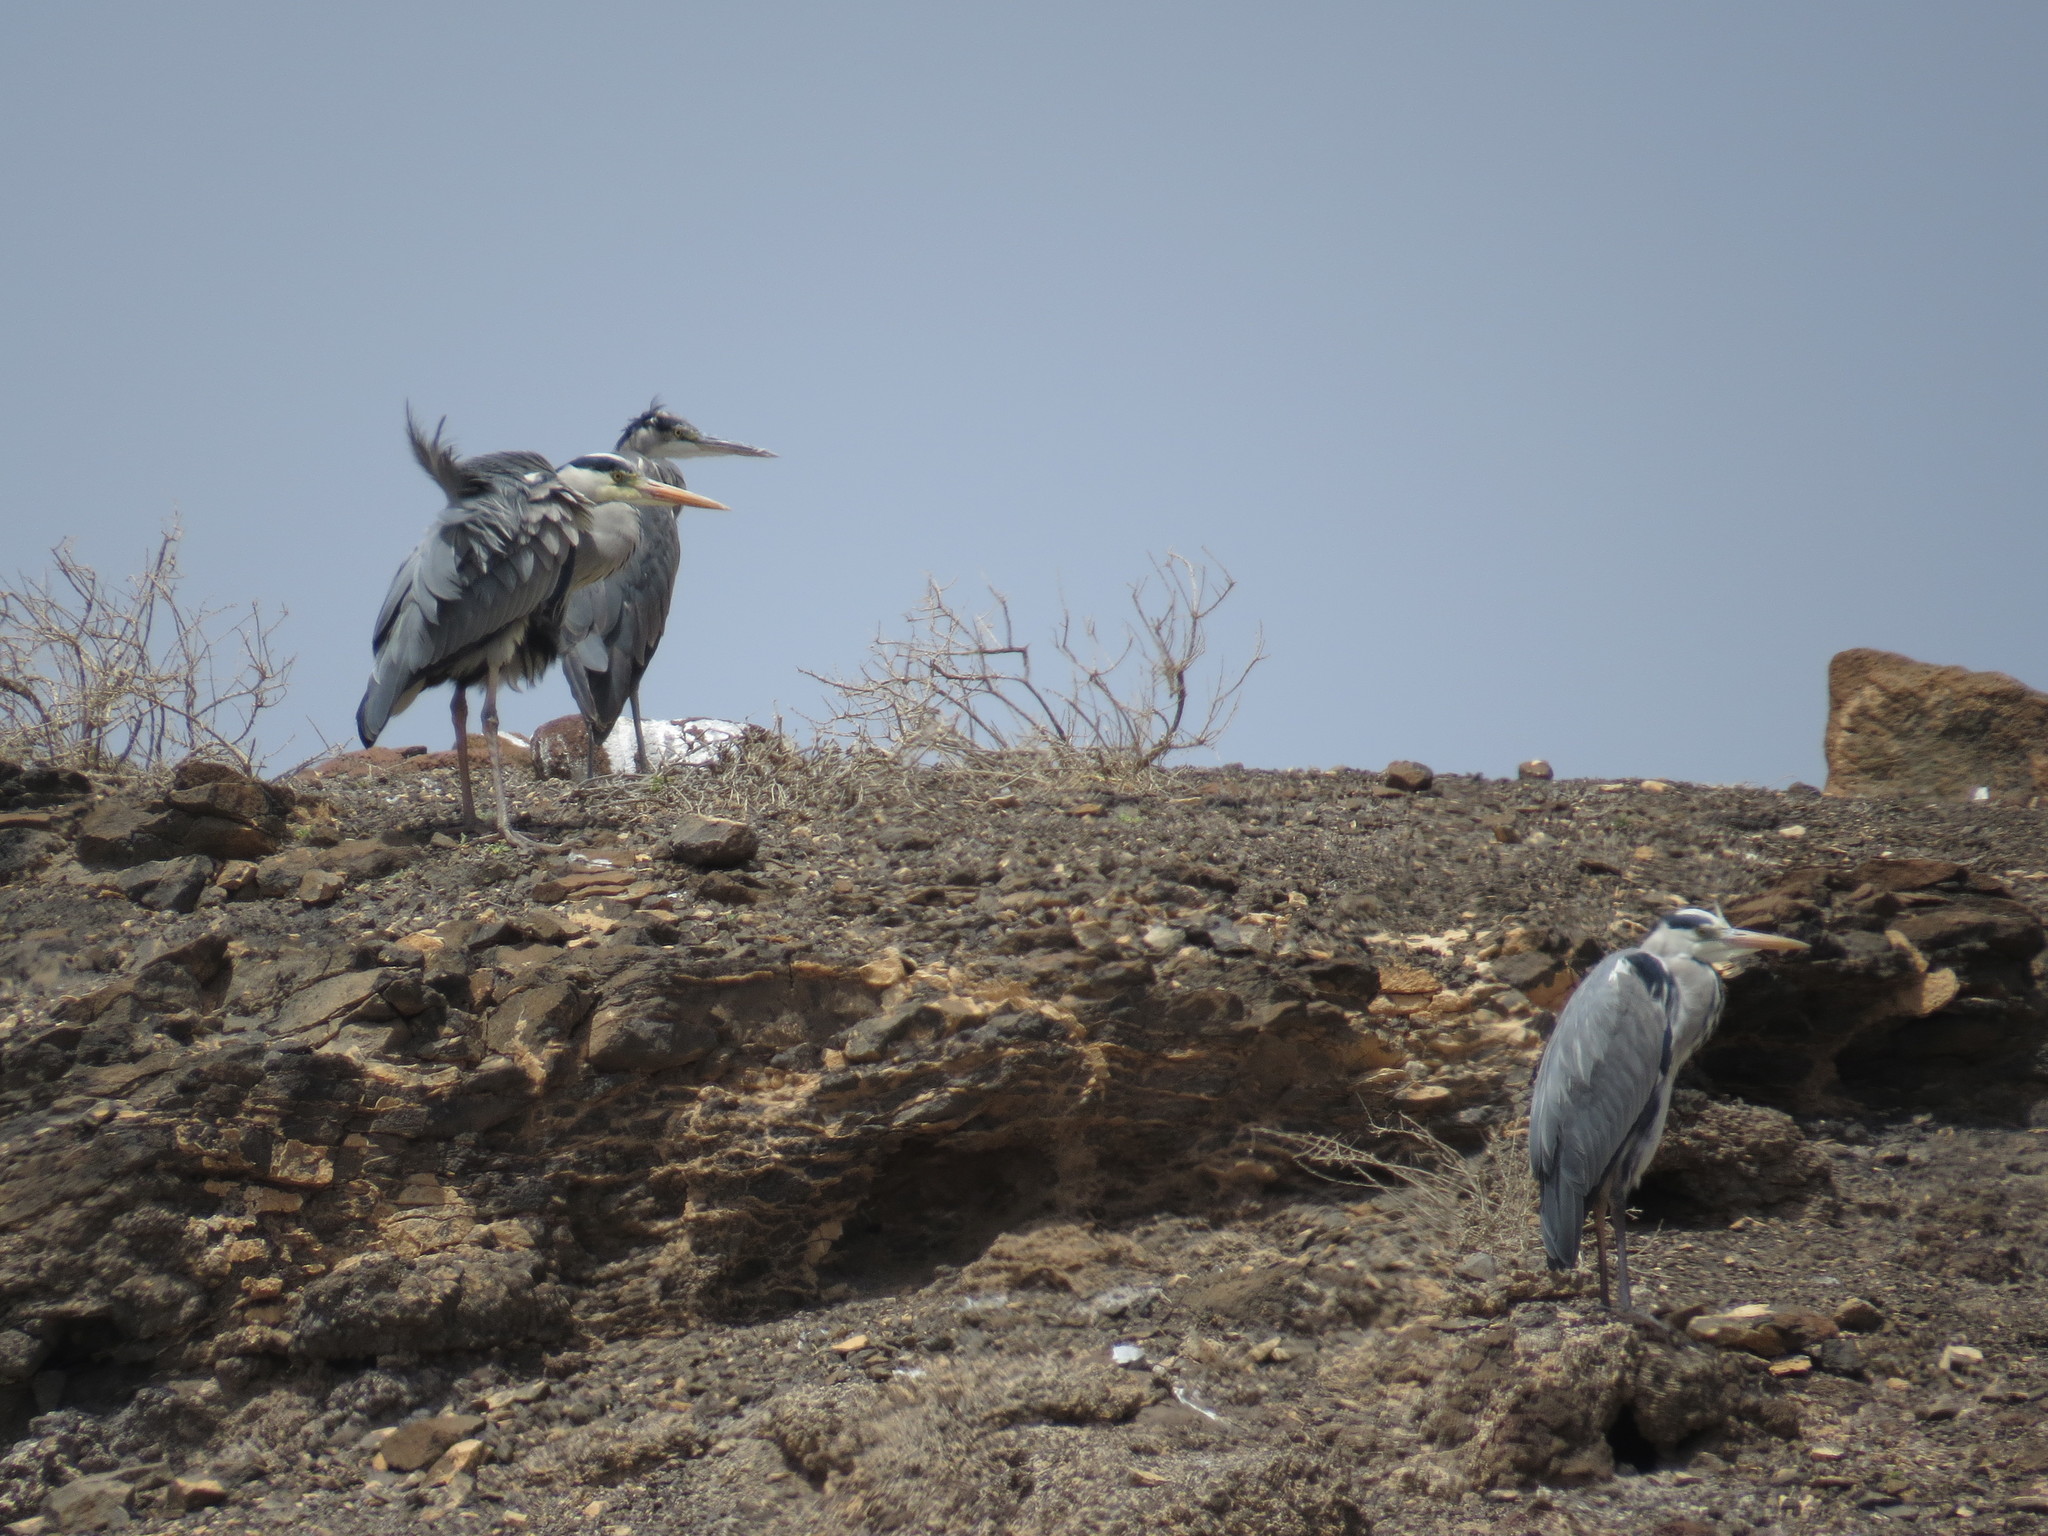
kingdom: Animalia
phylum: Chordata
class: Aves
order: Pelecaniformes
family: Ardeidae
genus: Ardea
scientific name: Ardea cinerea
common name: Grey heron
